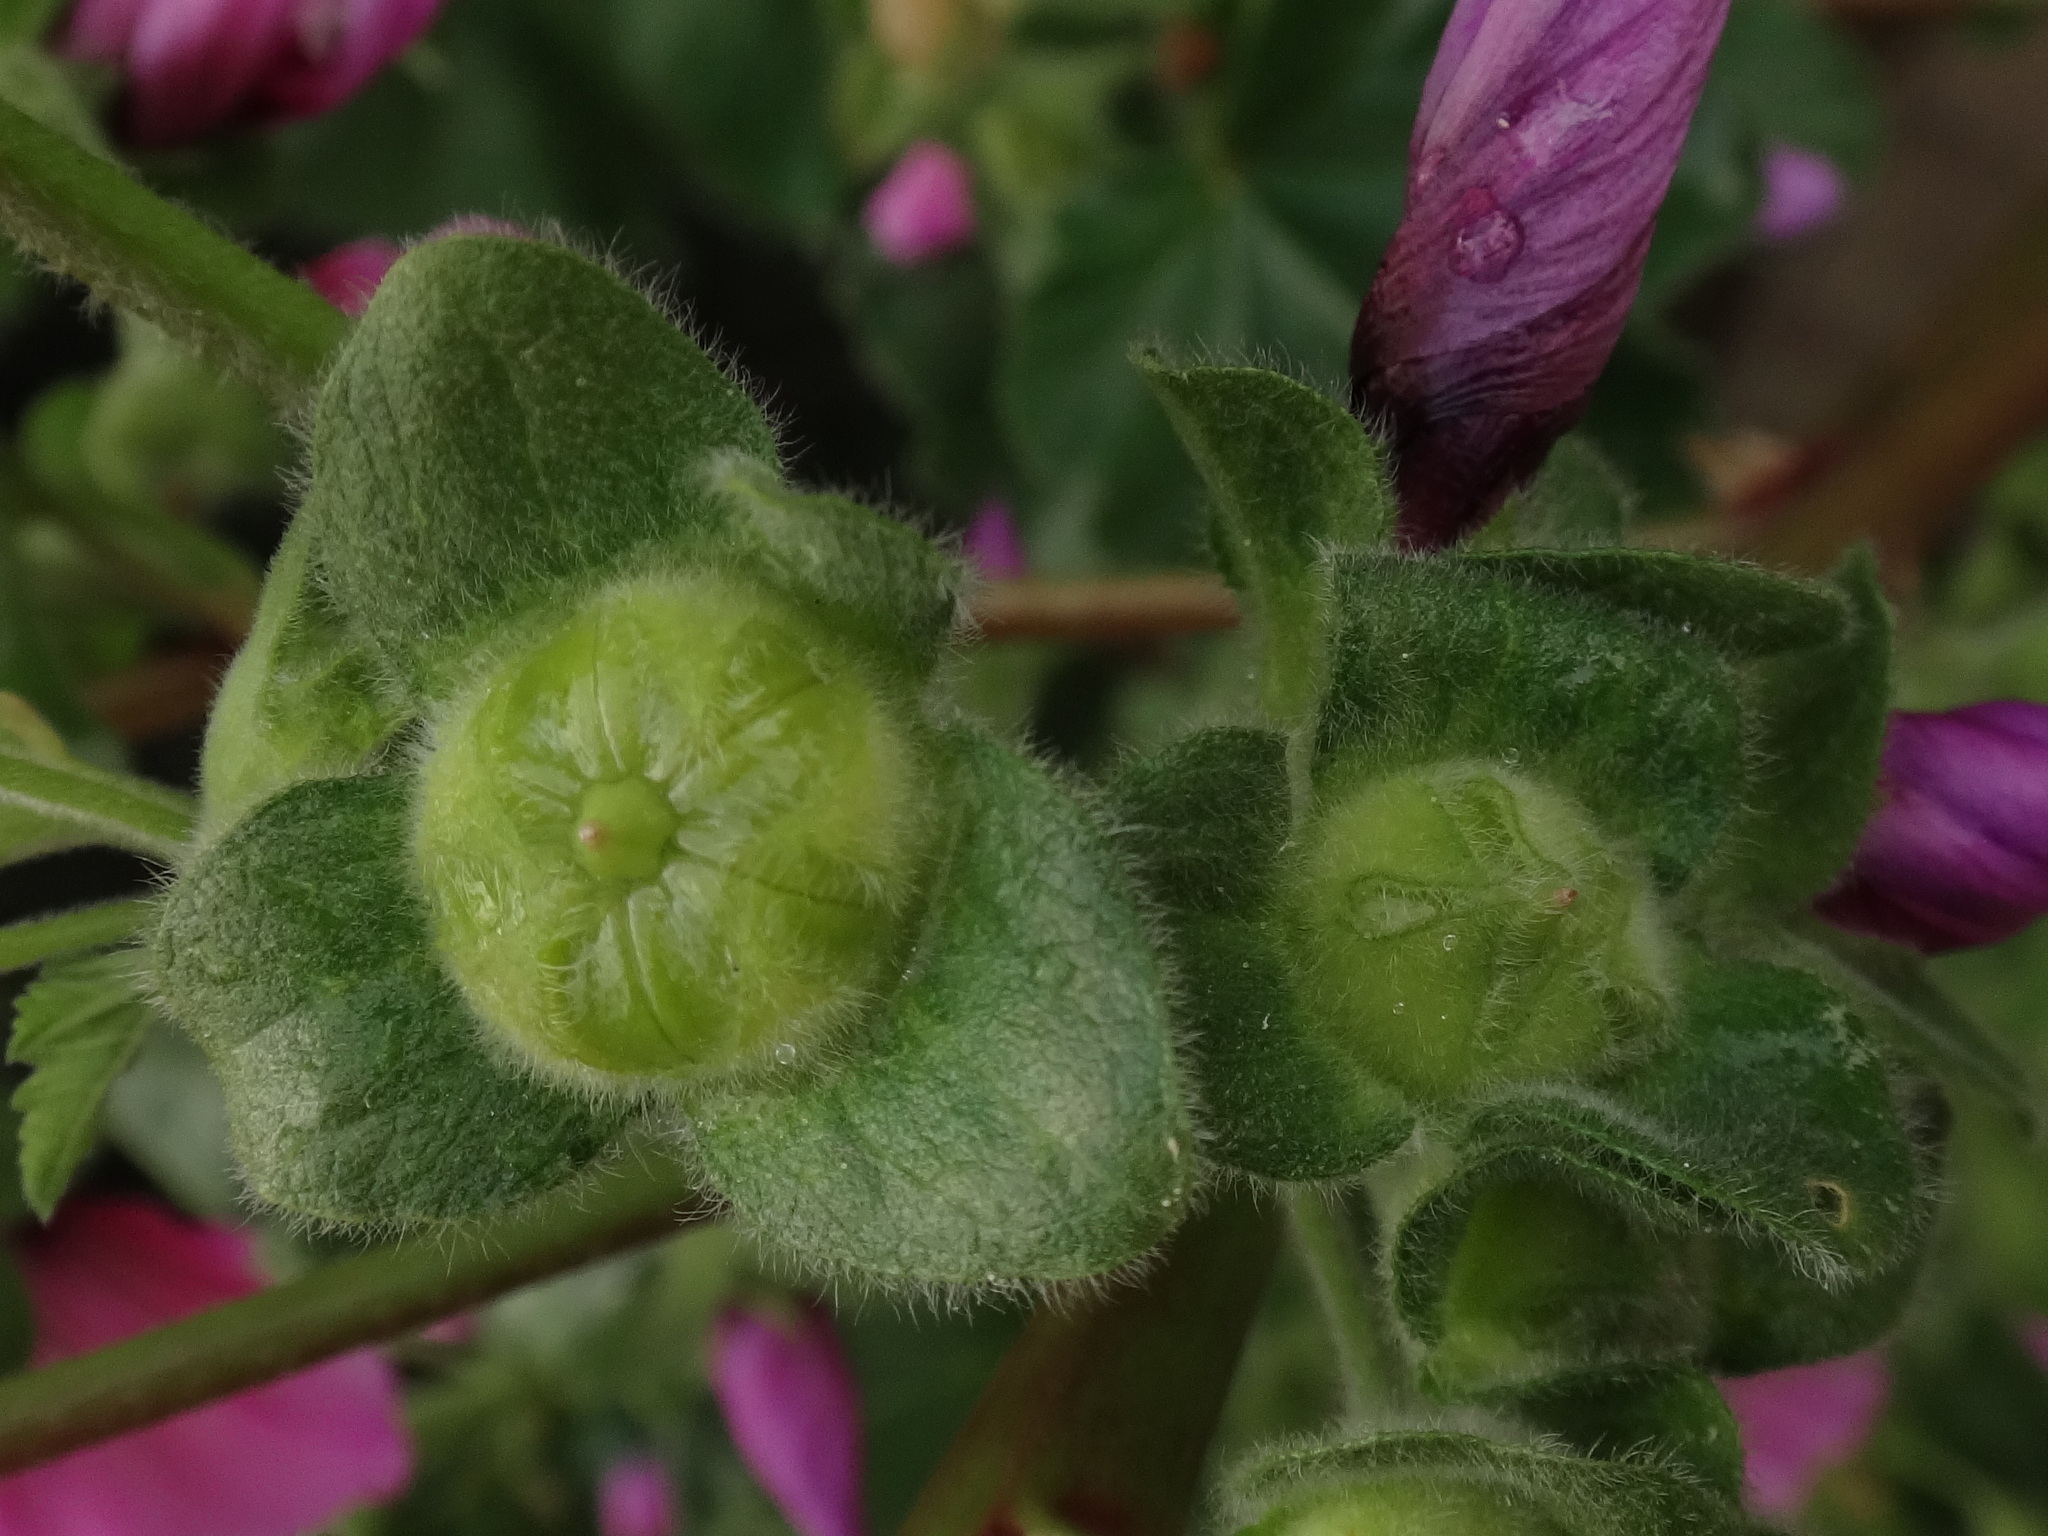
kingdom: Plantae
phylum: Tracheophyta
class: Magnoliopsida
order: Malvales
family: Malvaceae
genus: Malva
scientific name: Malva arborea
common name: Tree mallow
